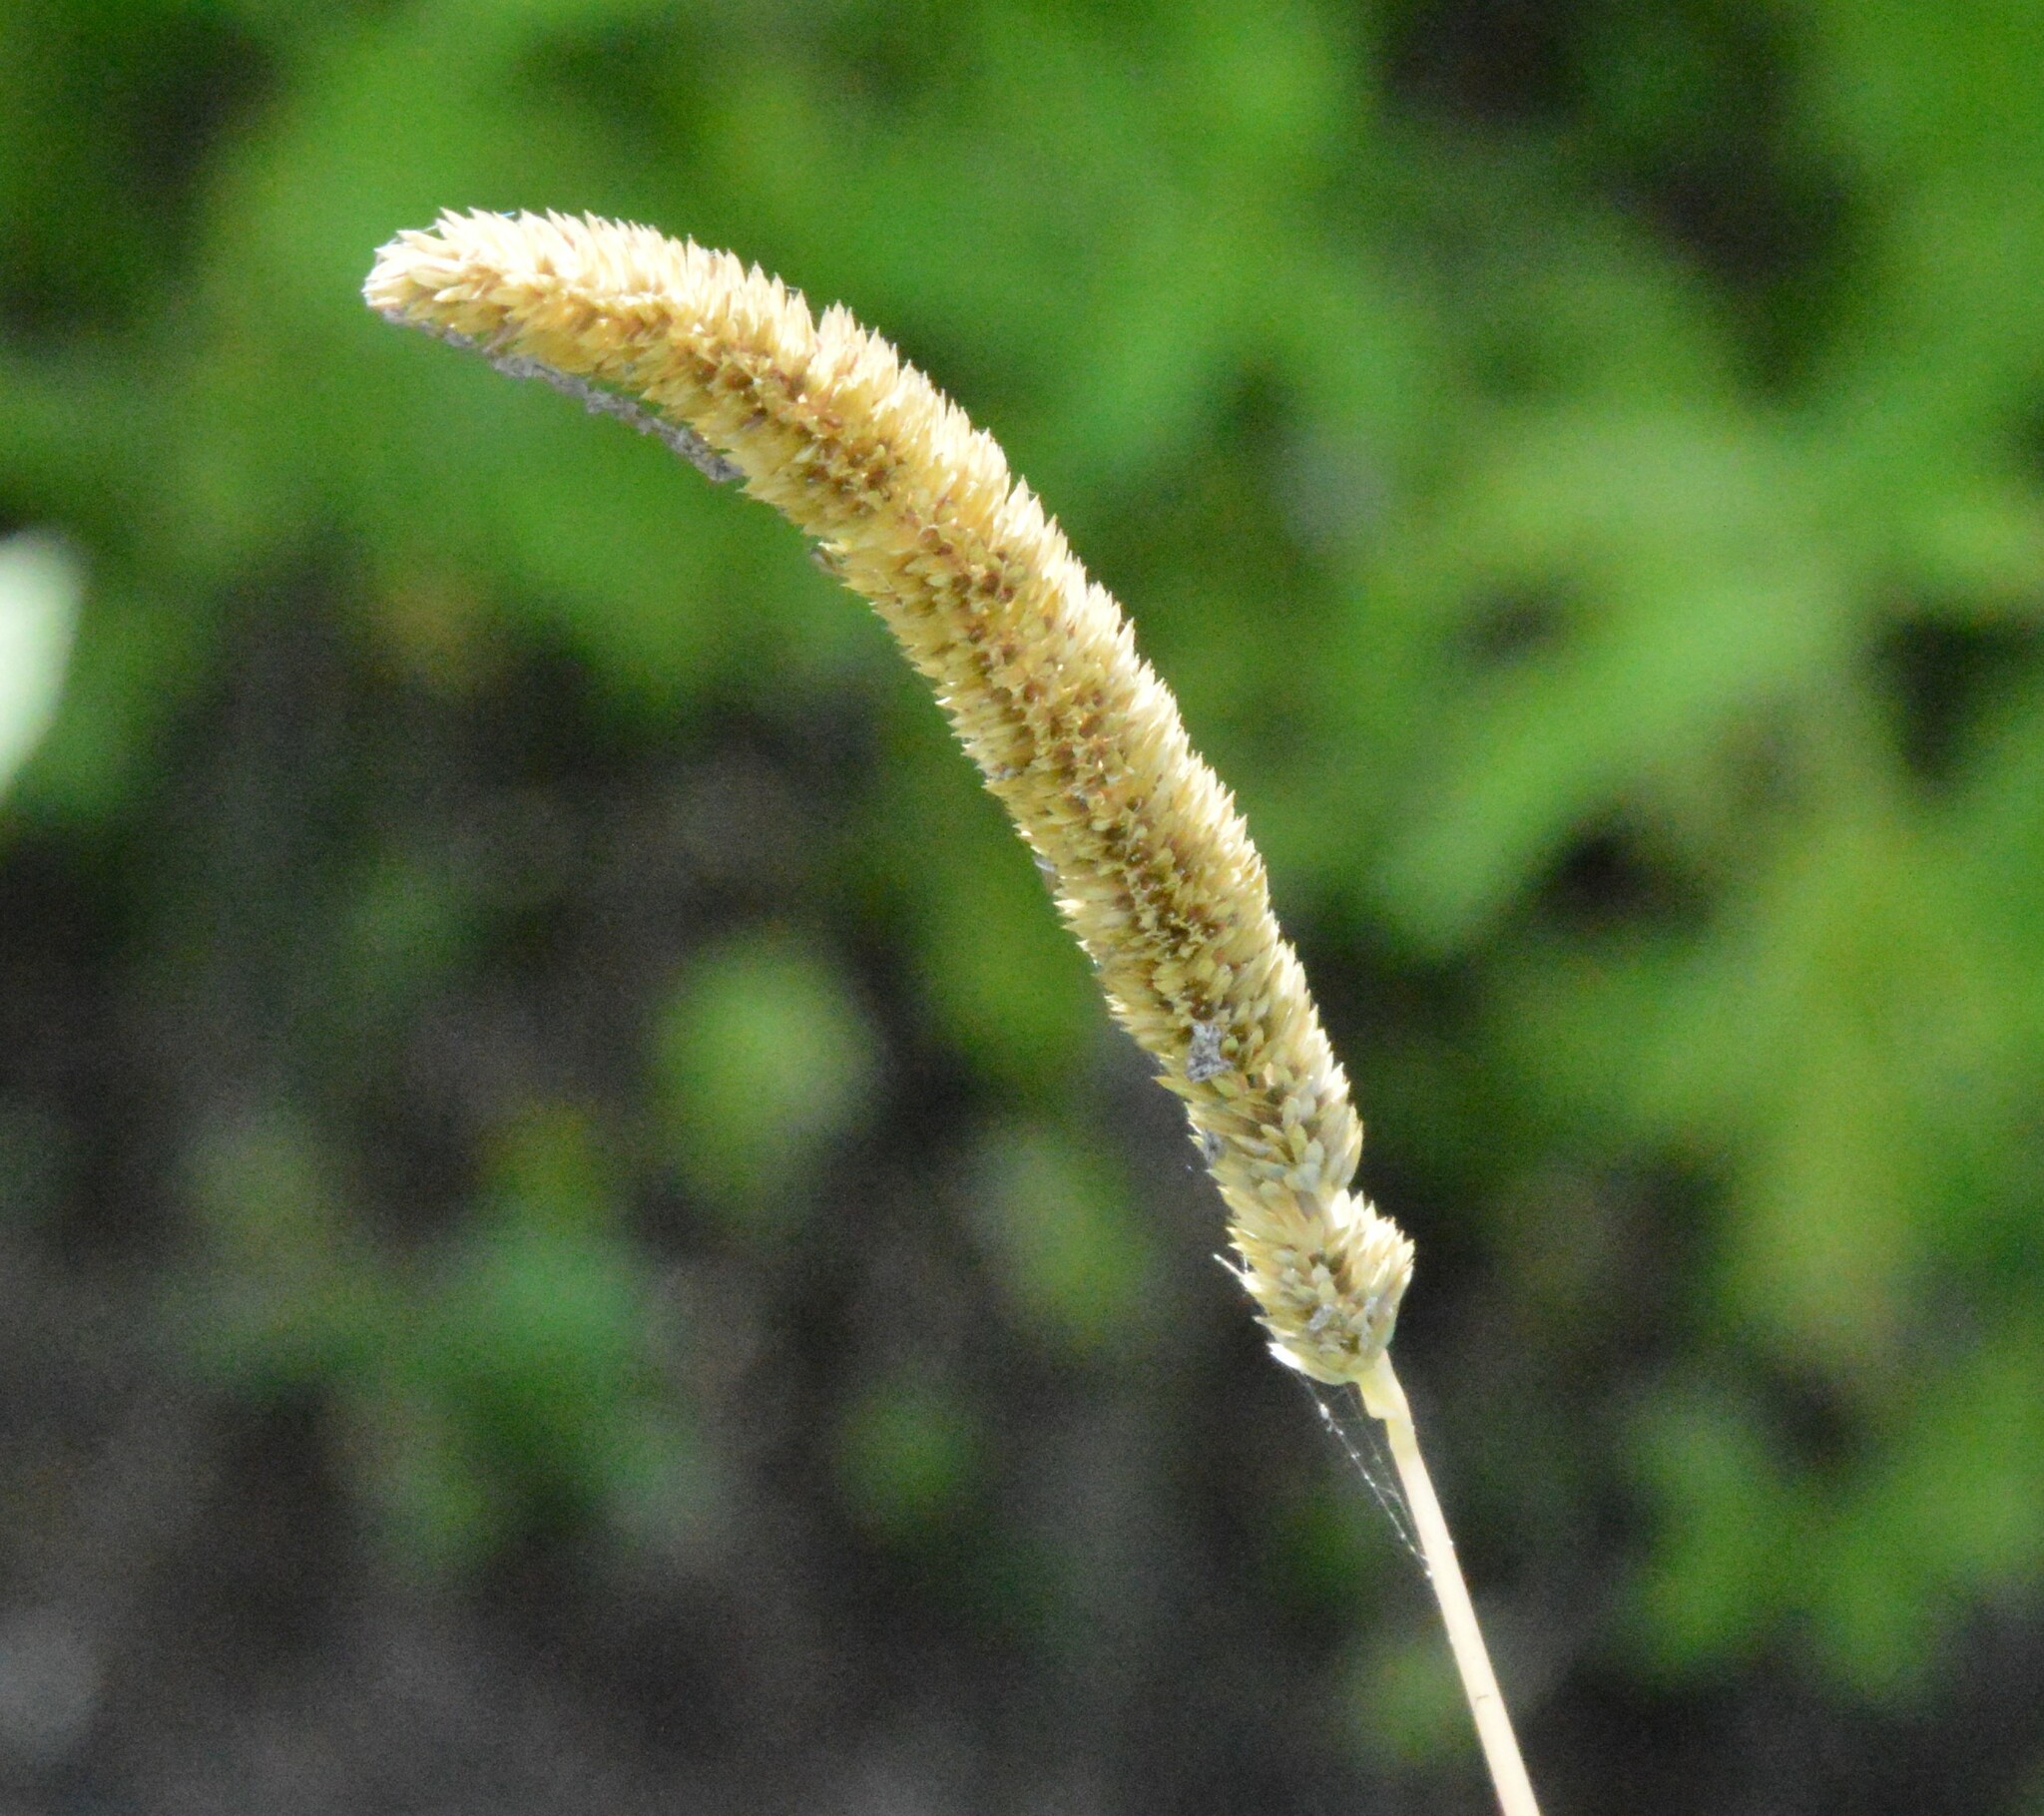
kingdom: Plantae
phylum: Tracheophyta
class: Liliopsida
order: Poales
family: Poaceae
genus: Phalaris
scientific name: Phalaris angusta
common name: Narrow canary grass
